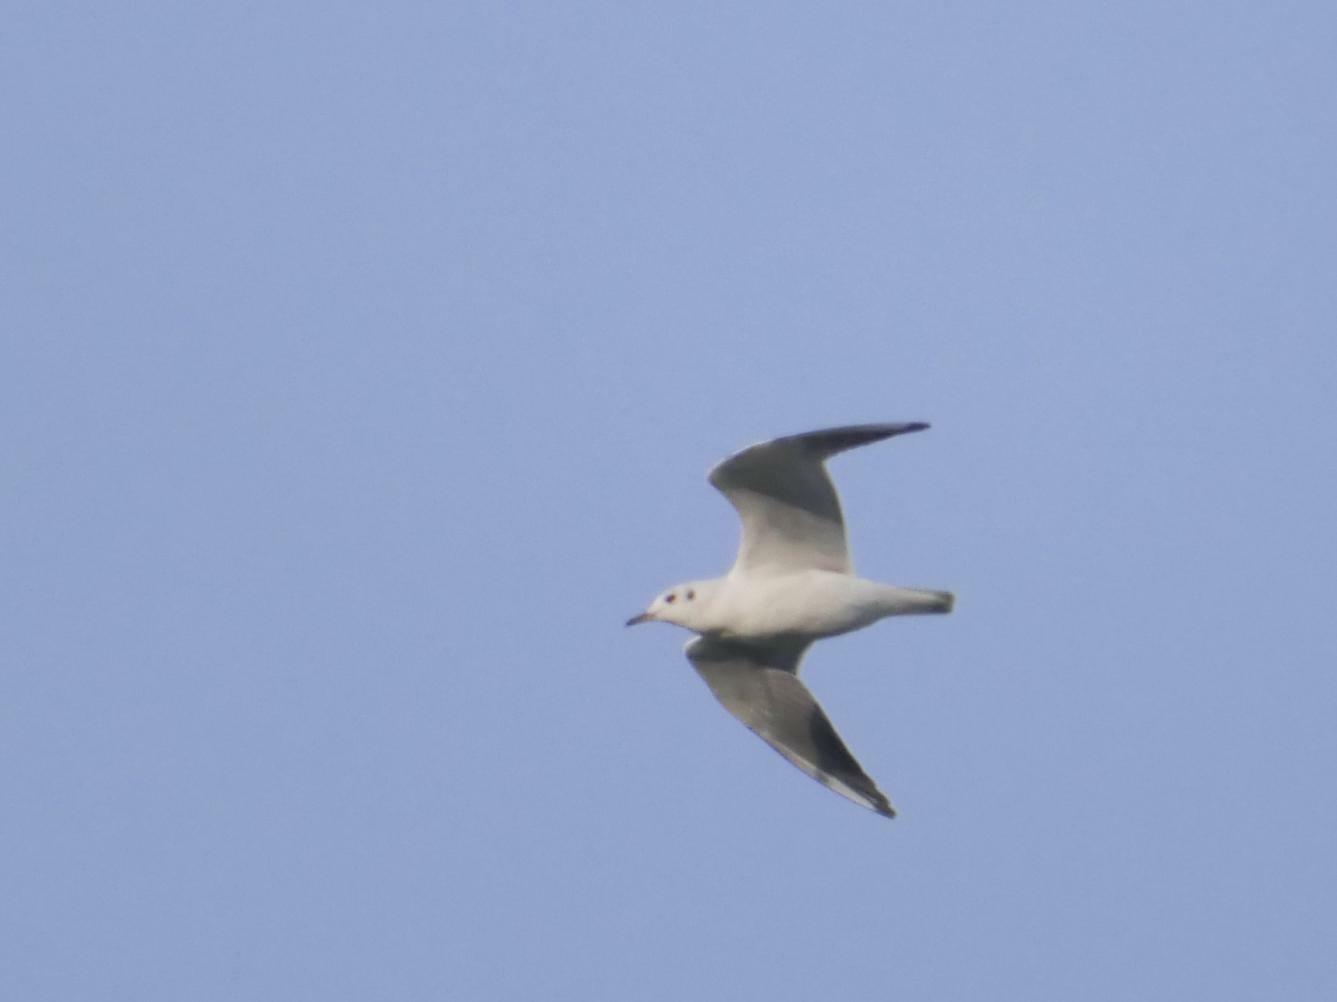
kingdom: Animalia
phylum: Chordata
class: Aves
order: Charadriiformes
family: Laridae
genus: Chroicocephalus
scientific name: Chroicocephalus ridibundus
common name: Black-headed gull
